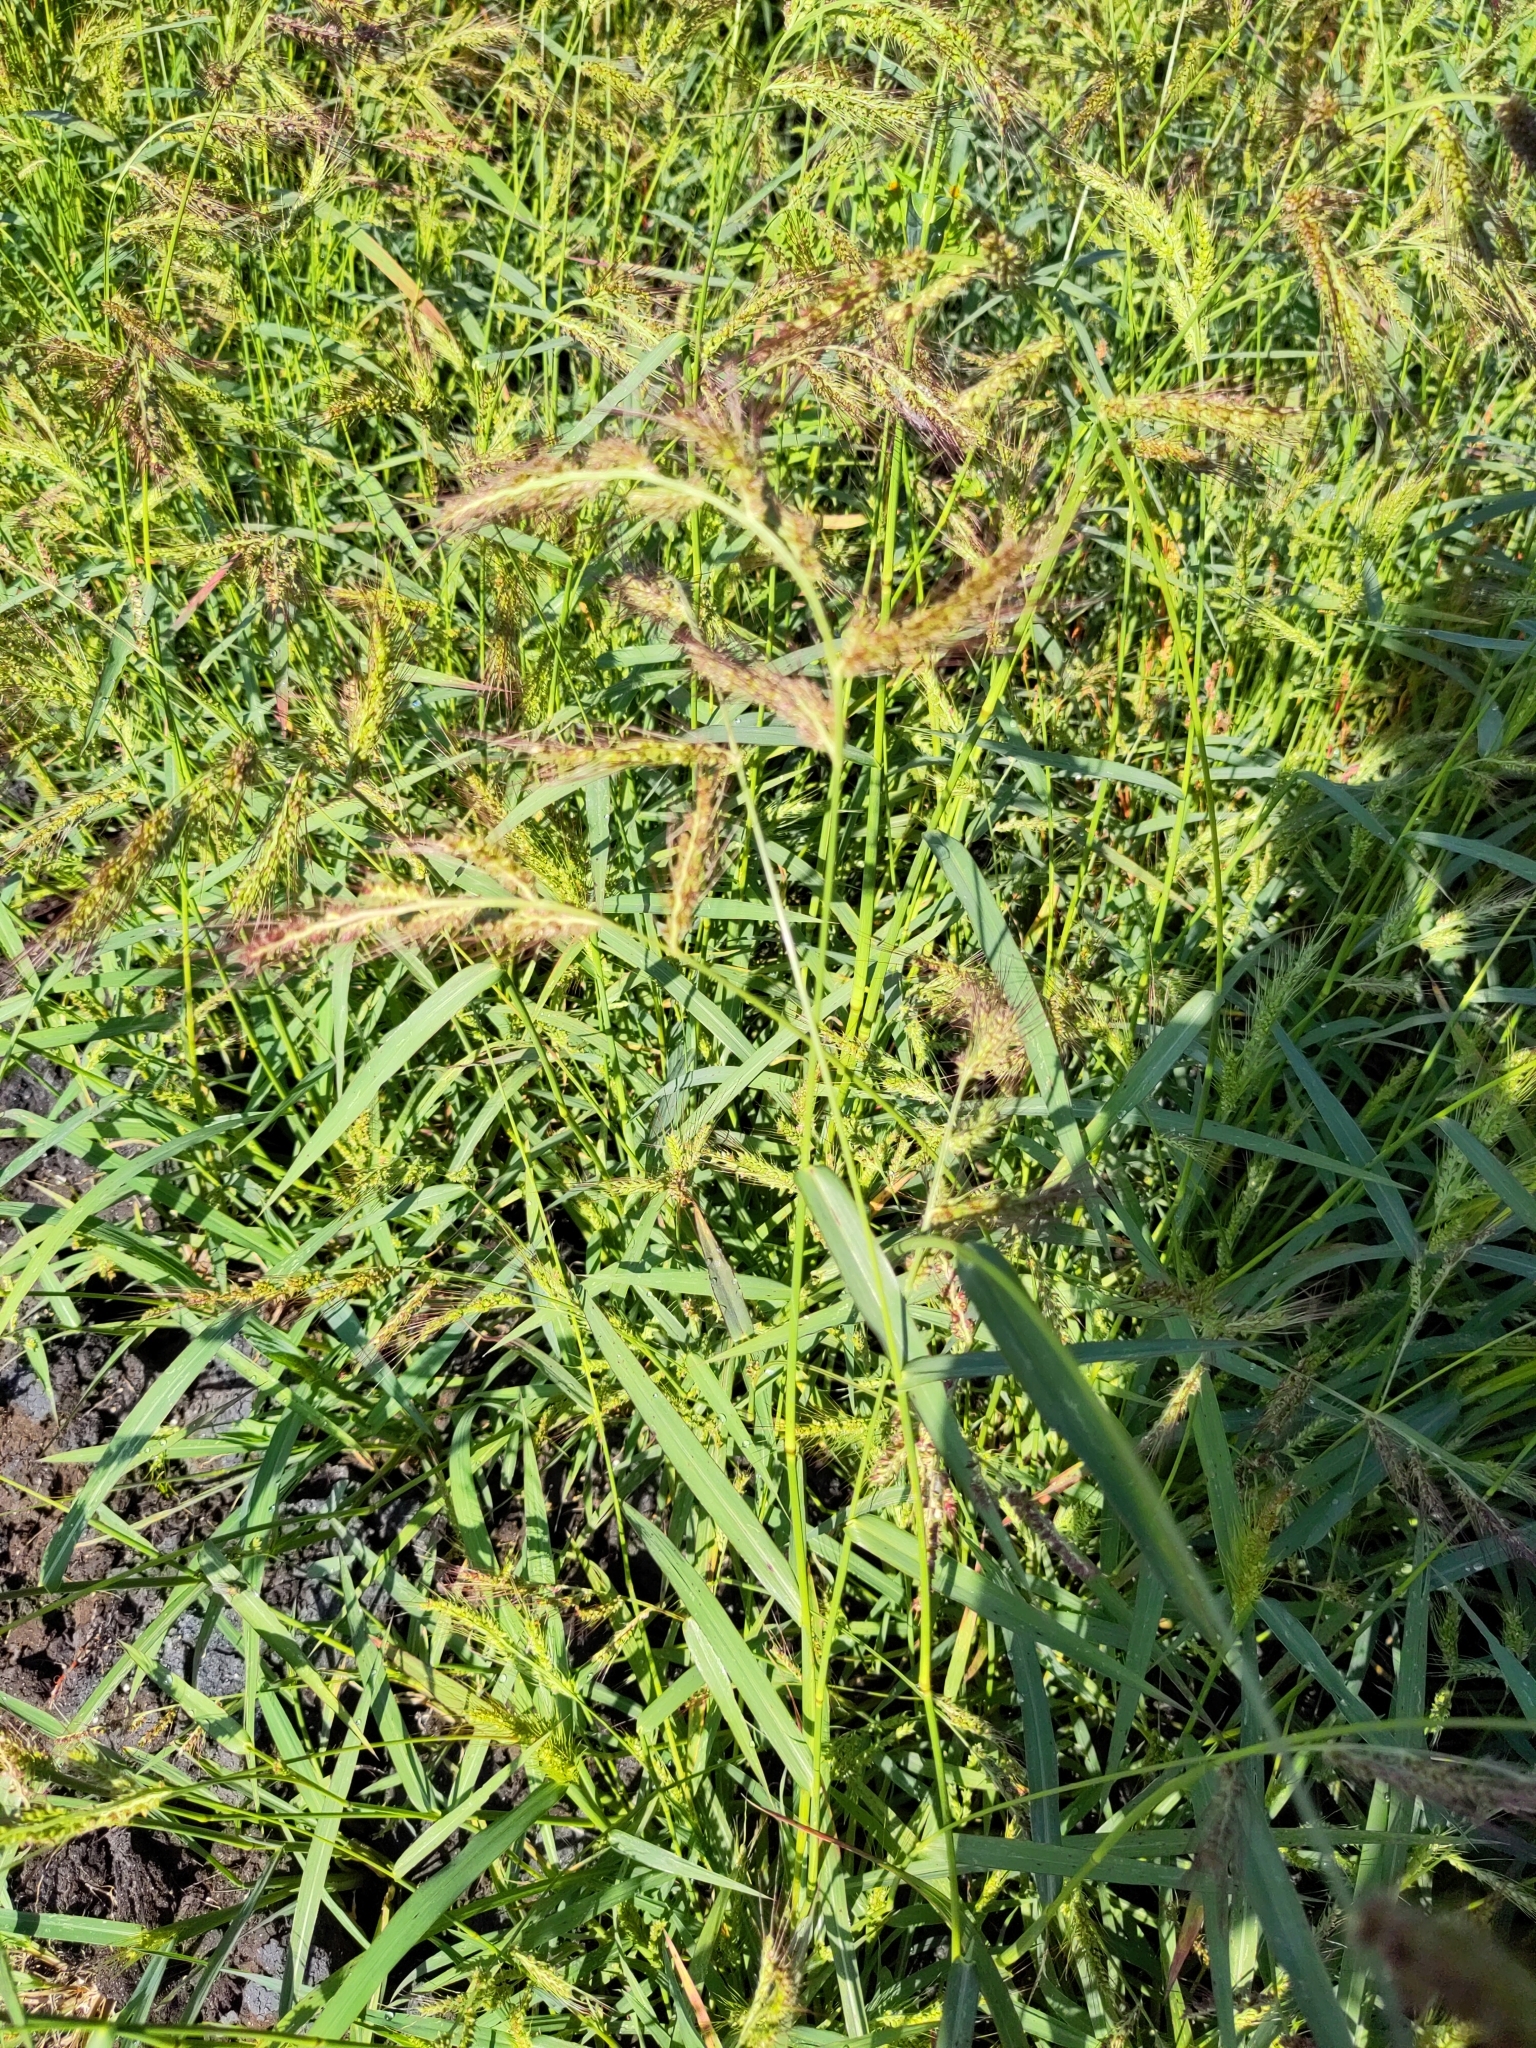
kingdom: Plantae
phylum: Tracheophyta
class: Liliopsida
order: Poales
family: Poaceae
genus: Echinochloa
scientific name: Echinochloa crus-galli
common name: Cockspur
